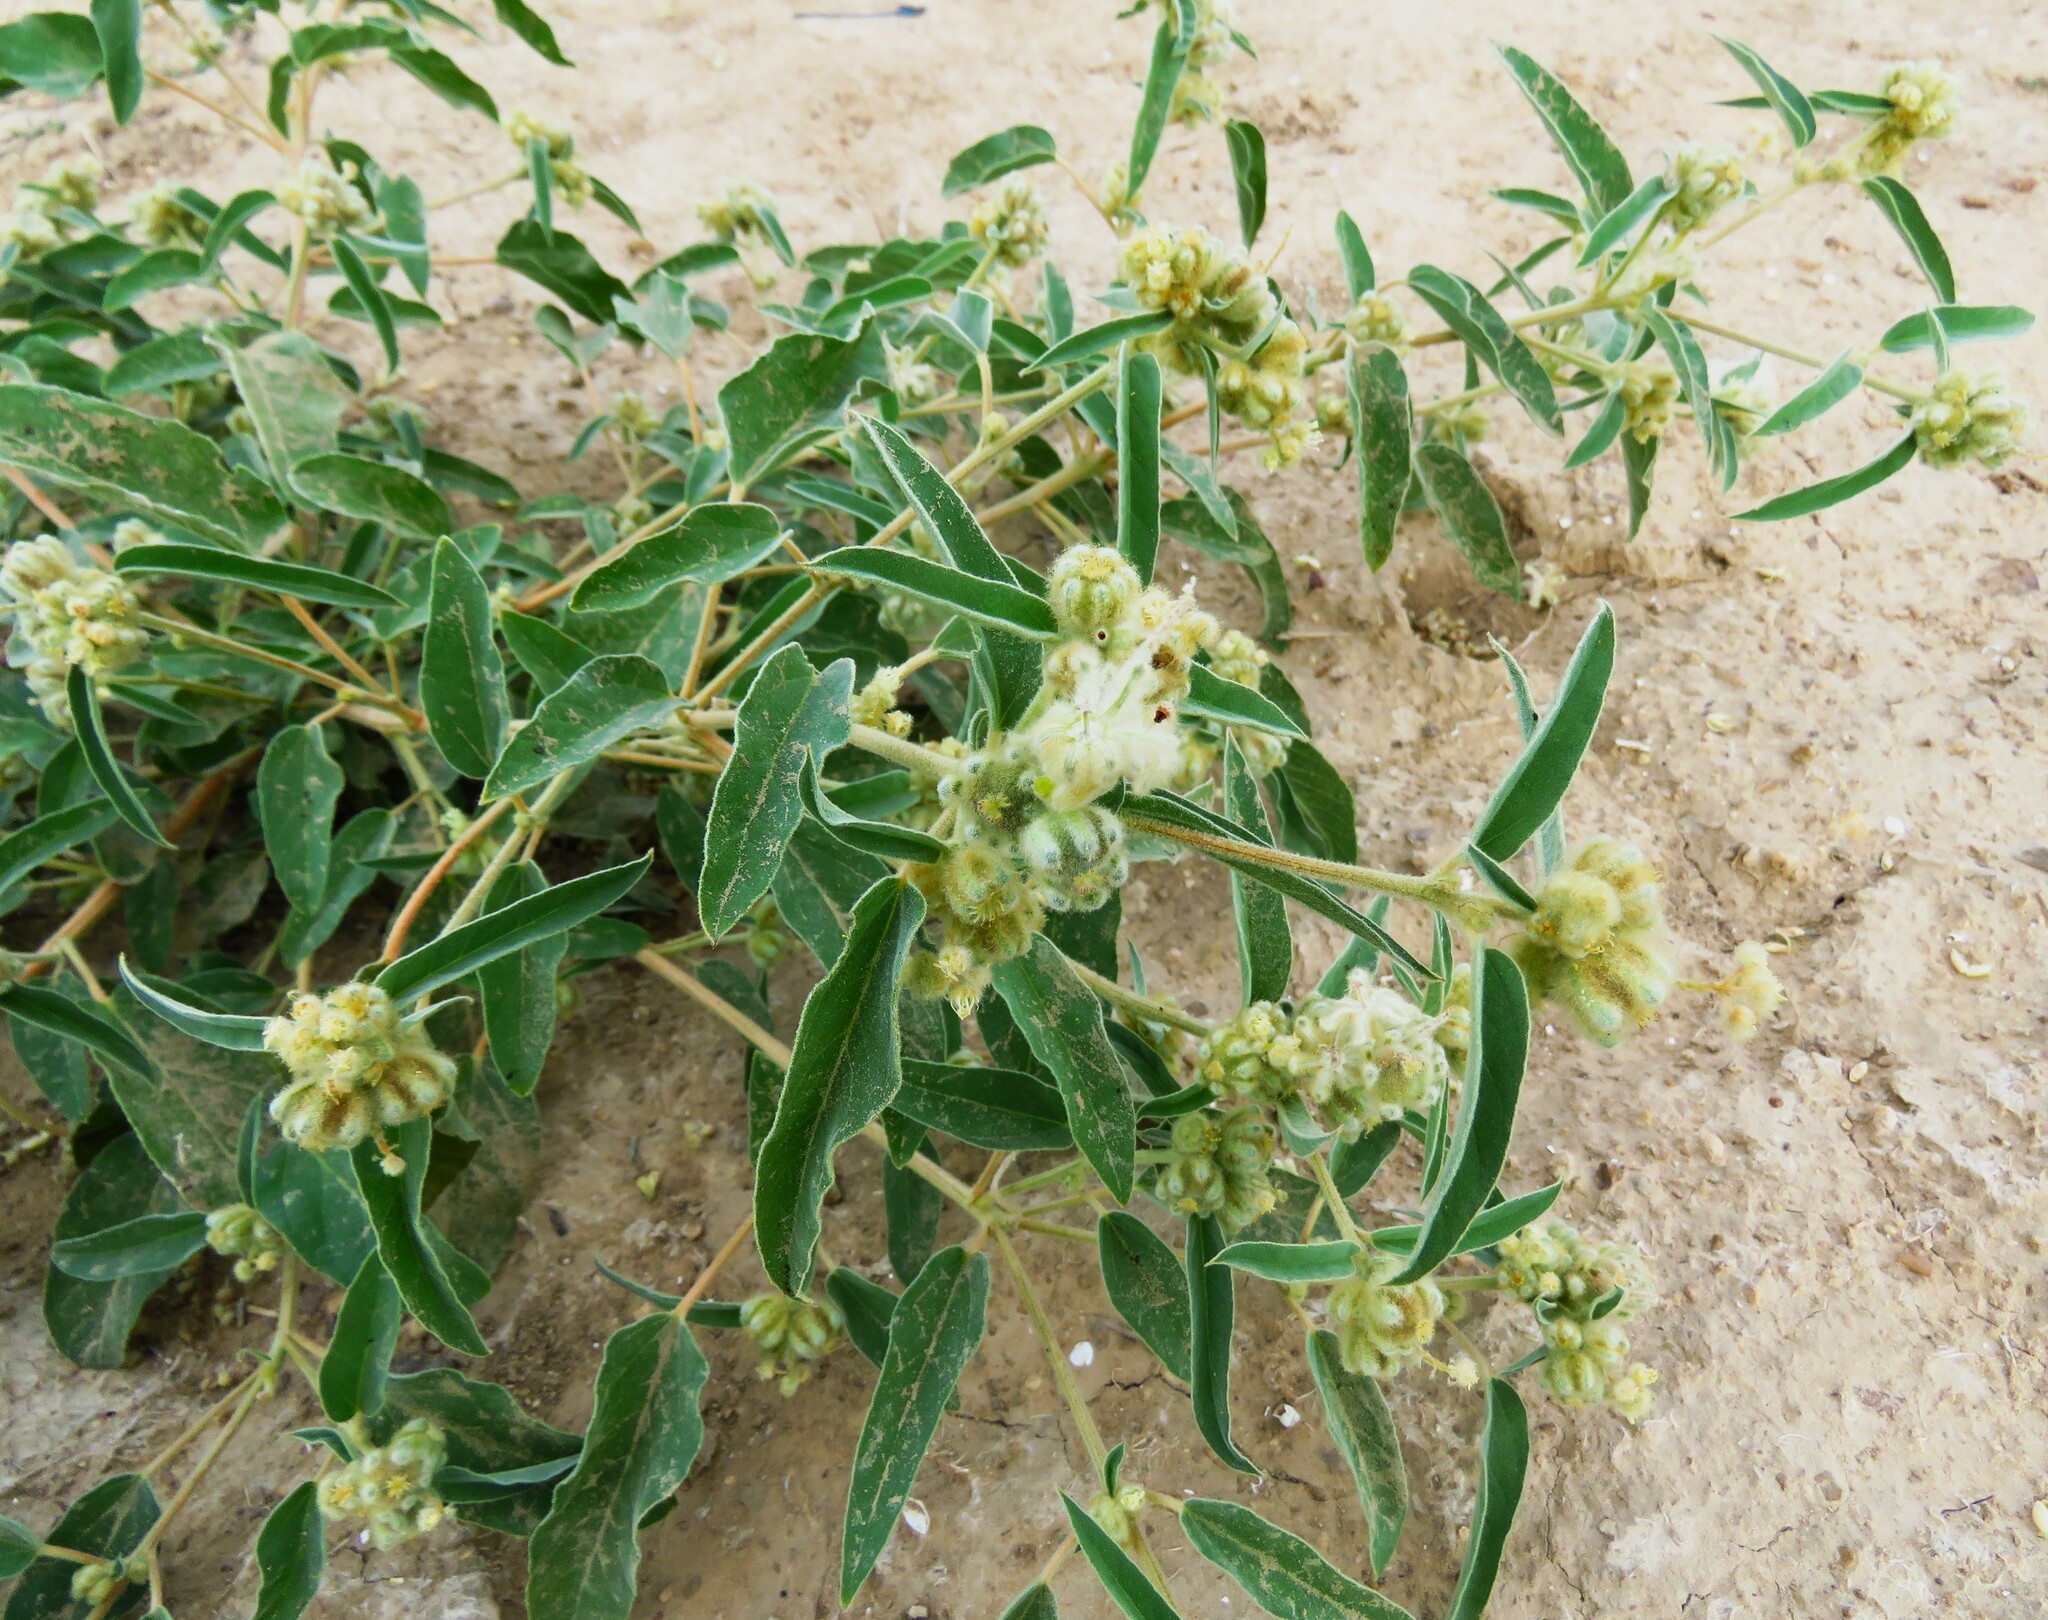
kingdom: Plantae
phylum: Tracheophyta
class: Magnoliopsida
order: Malpighiales
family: Euphorbiaceae
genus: Croton
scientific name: Croton lindheimeri
